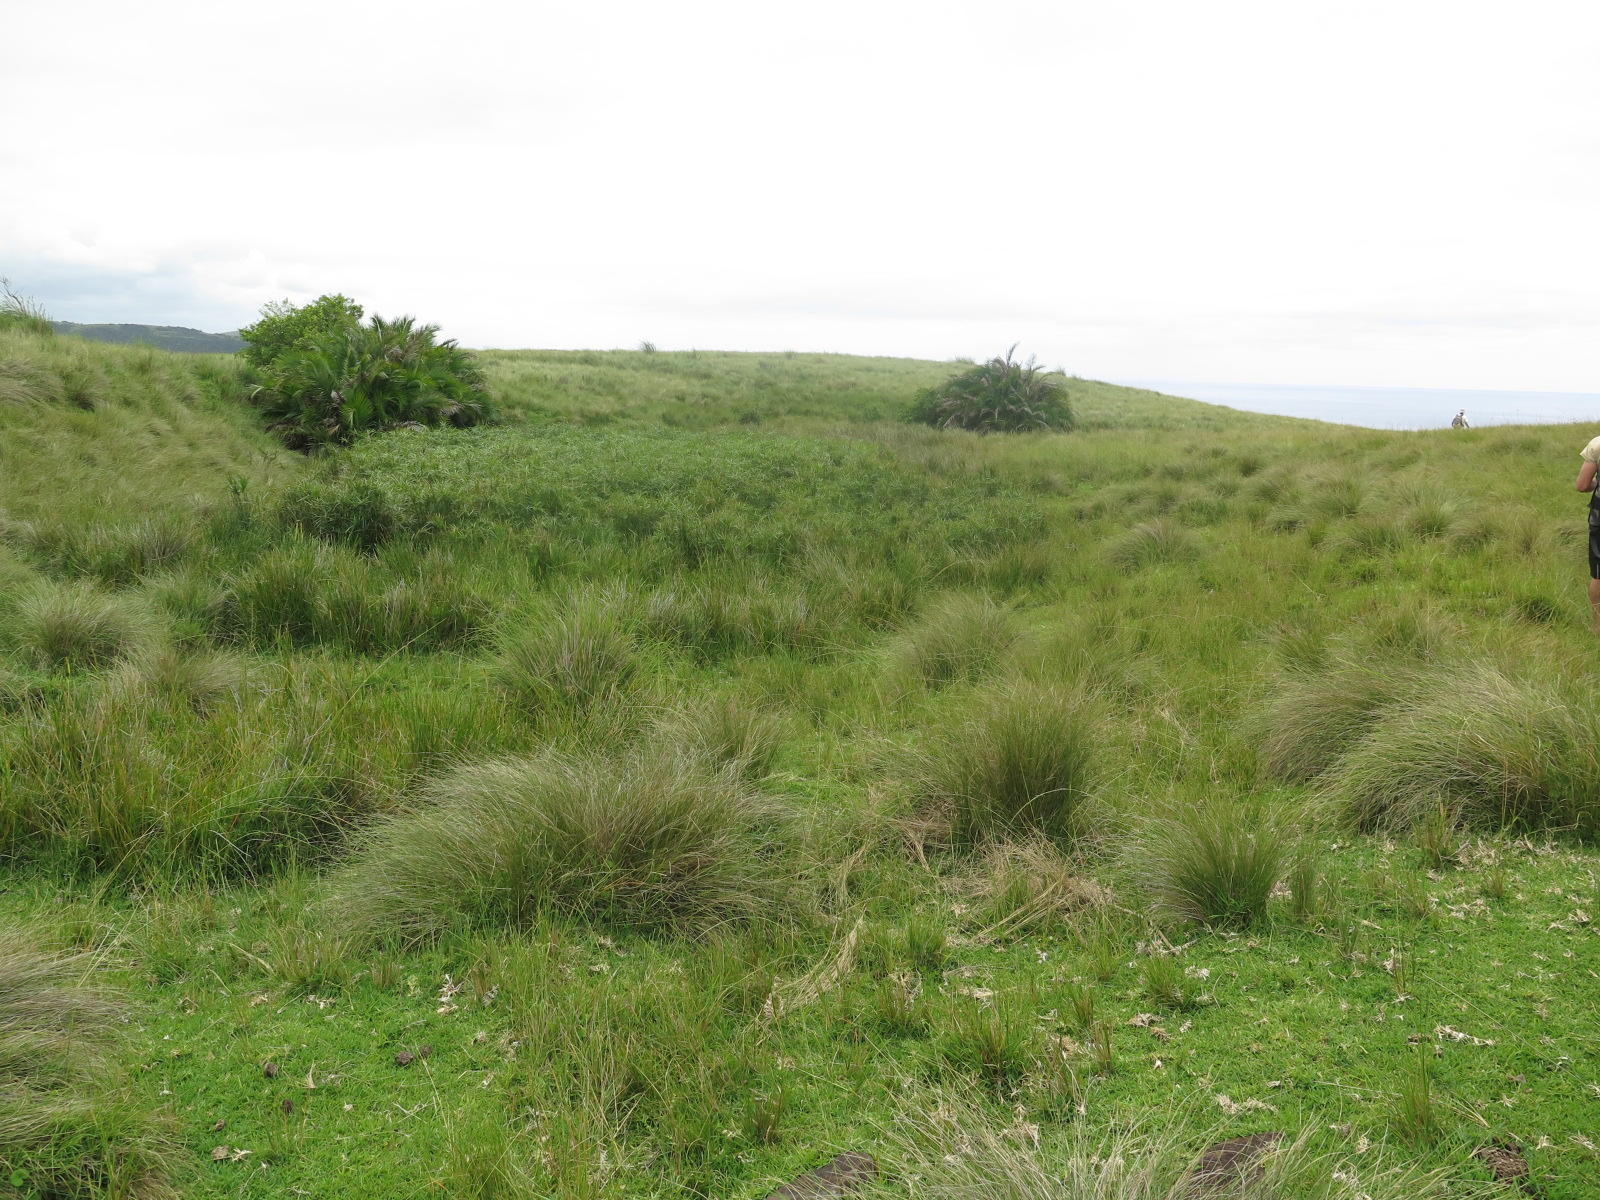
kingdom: Plantae
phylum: Tracheophyta
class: Liliopsida
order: Arecales
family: Arecaceae
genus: Phoenix
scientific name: Phoenix reclinata
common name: Senegal date palm
